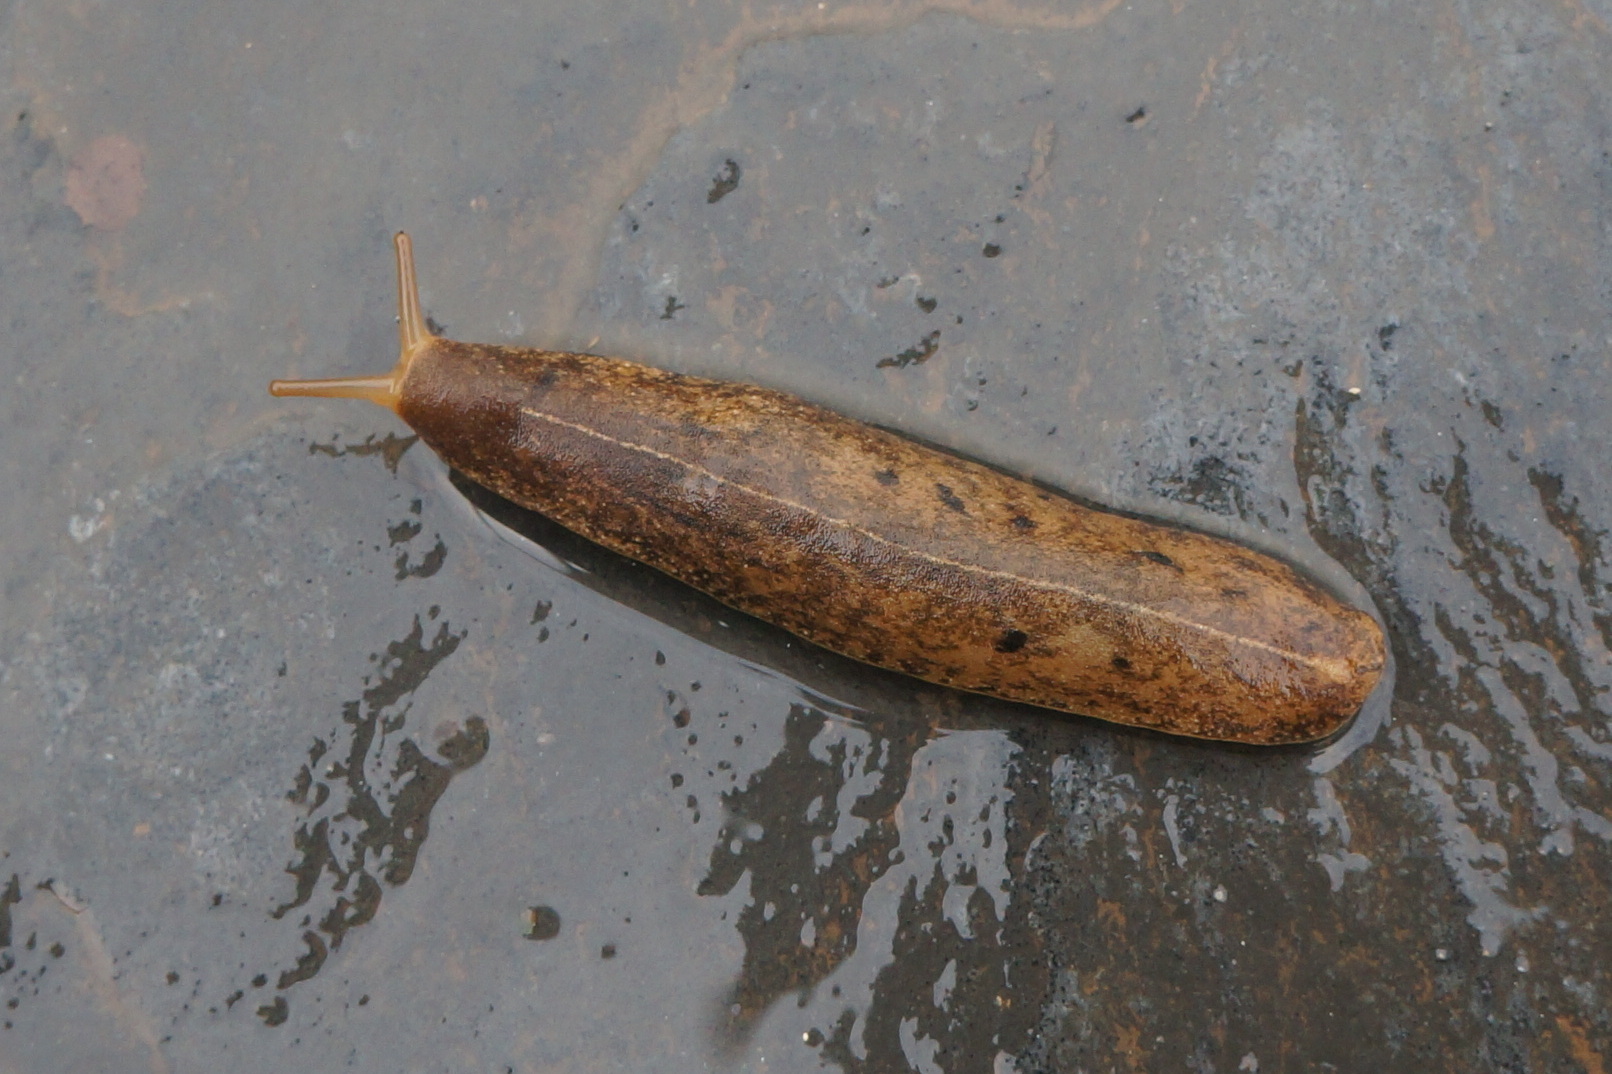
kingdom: Animalia
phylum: Mollusca
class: Gastropoda
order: Systellommatophora
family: Veronicellidae
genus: Veronicella
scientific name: Veronicella cubensis
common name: Two striped slug
